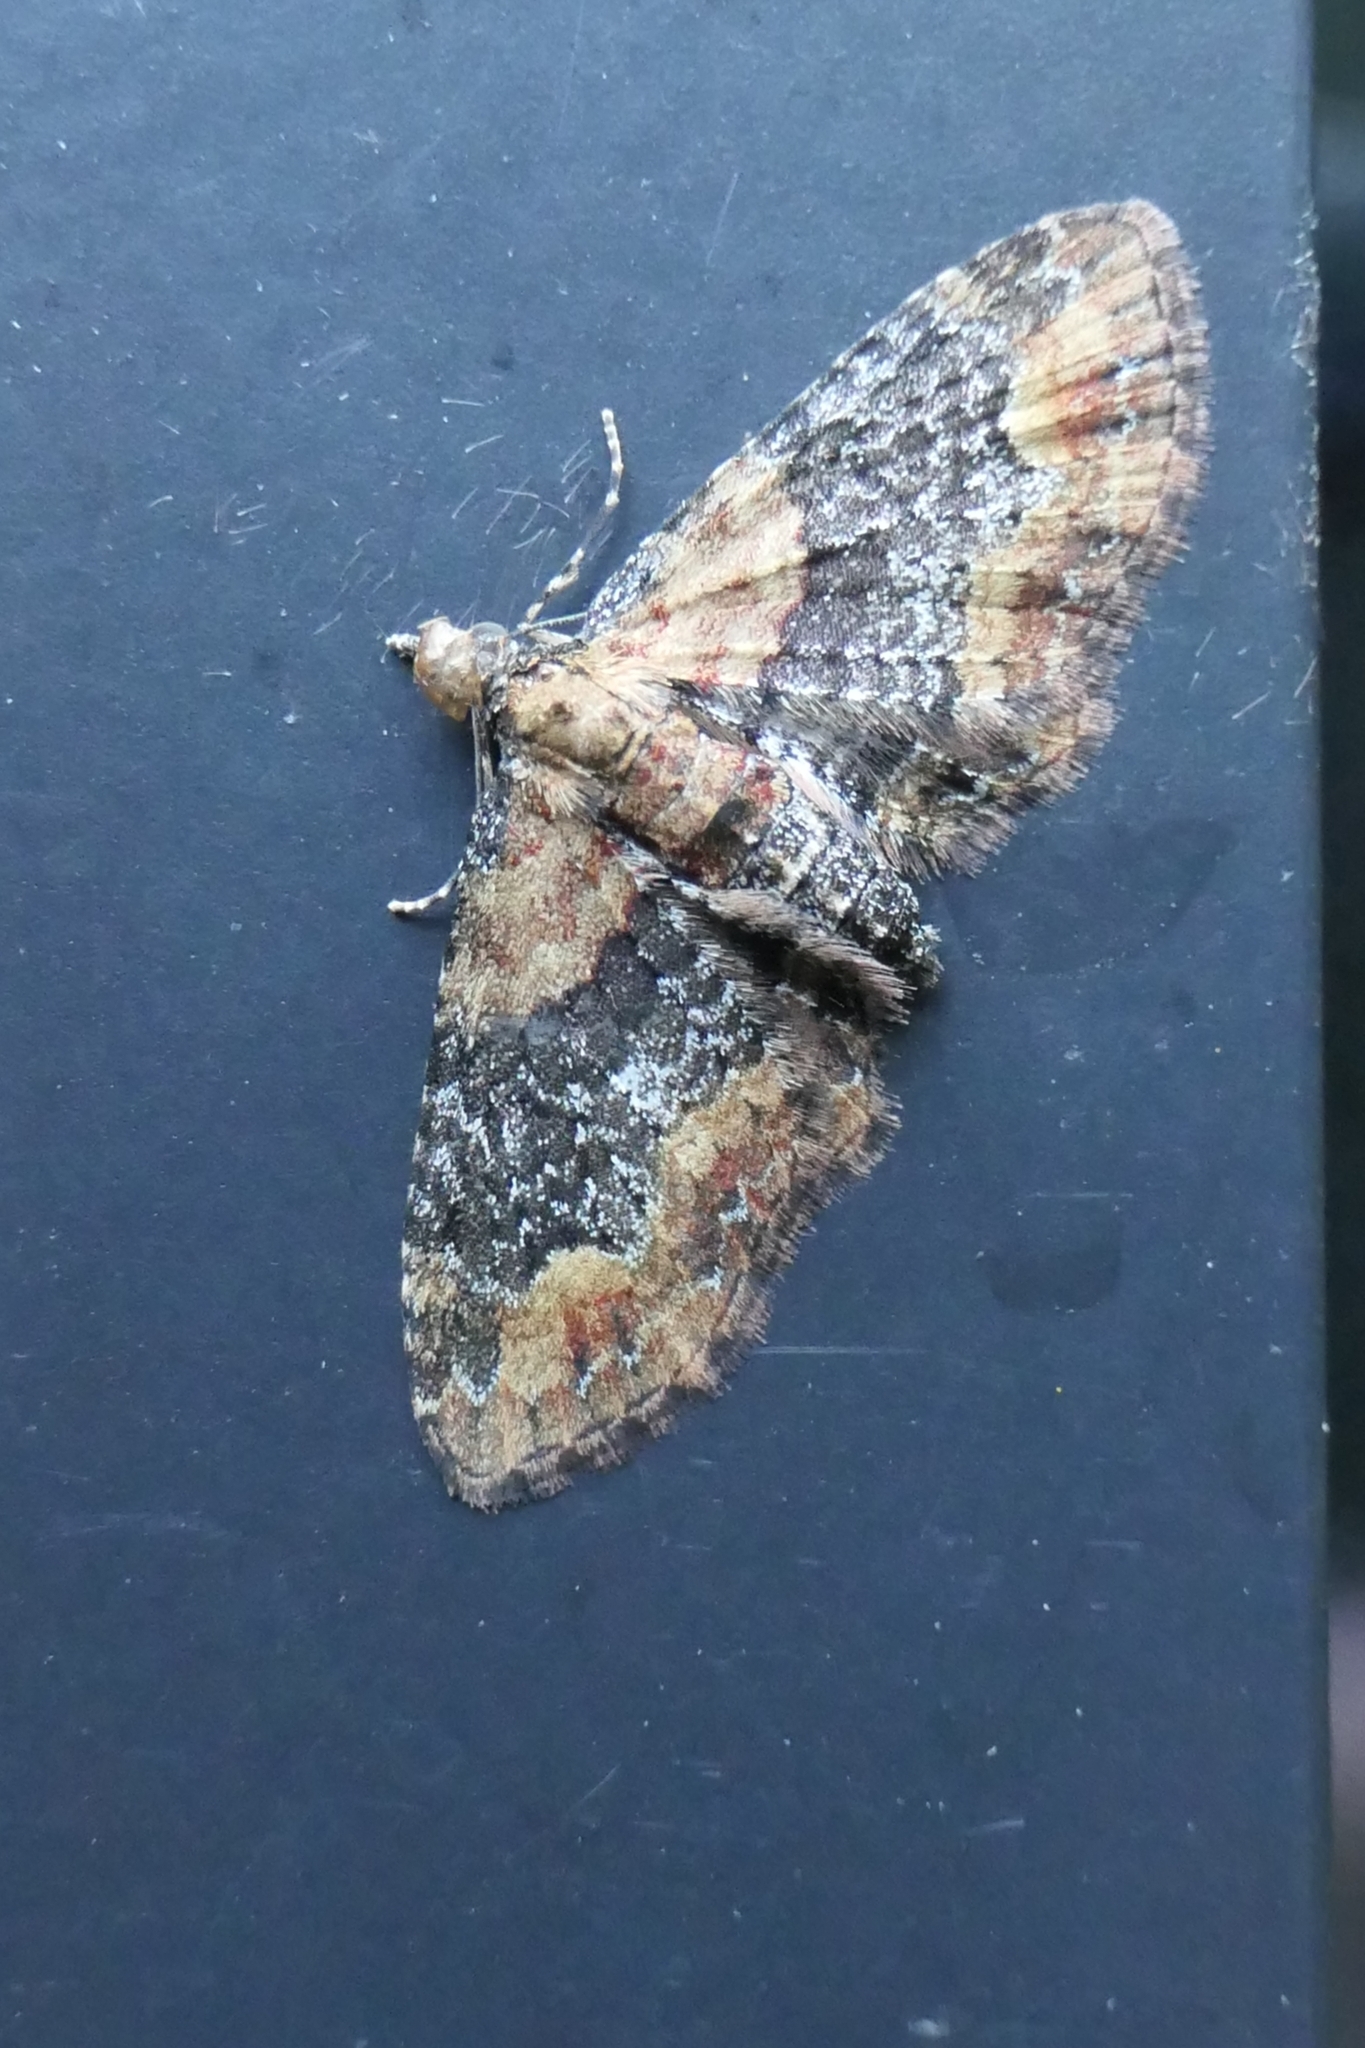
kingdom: Animalia
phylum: Arthropoda
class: Insecta
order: Lepidoptera
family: Geometridae
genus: Pasiphilodes
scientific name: Pasiphilodes testulata
